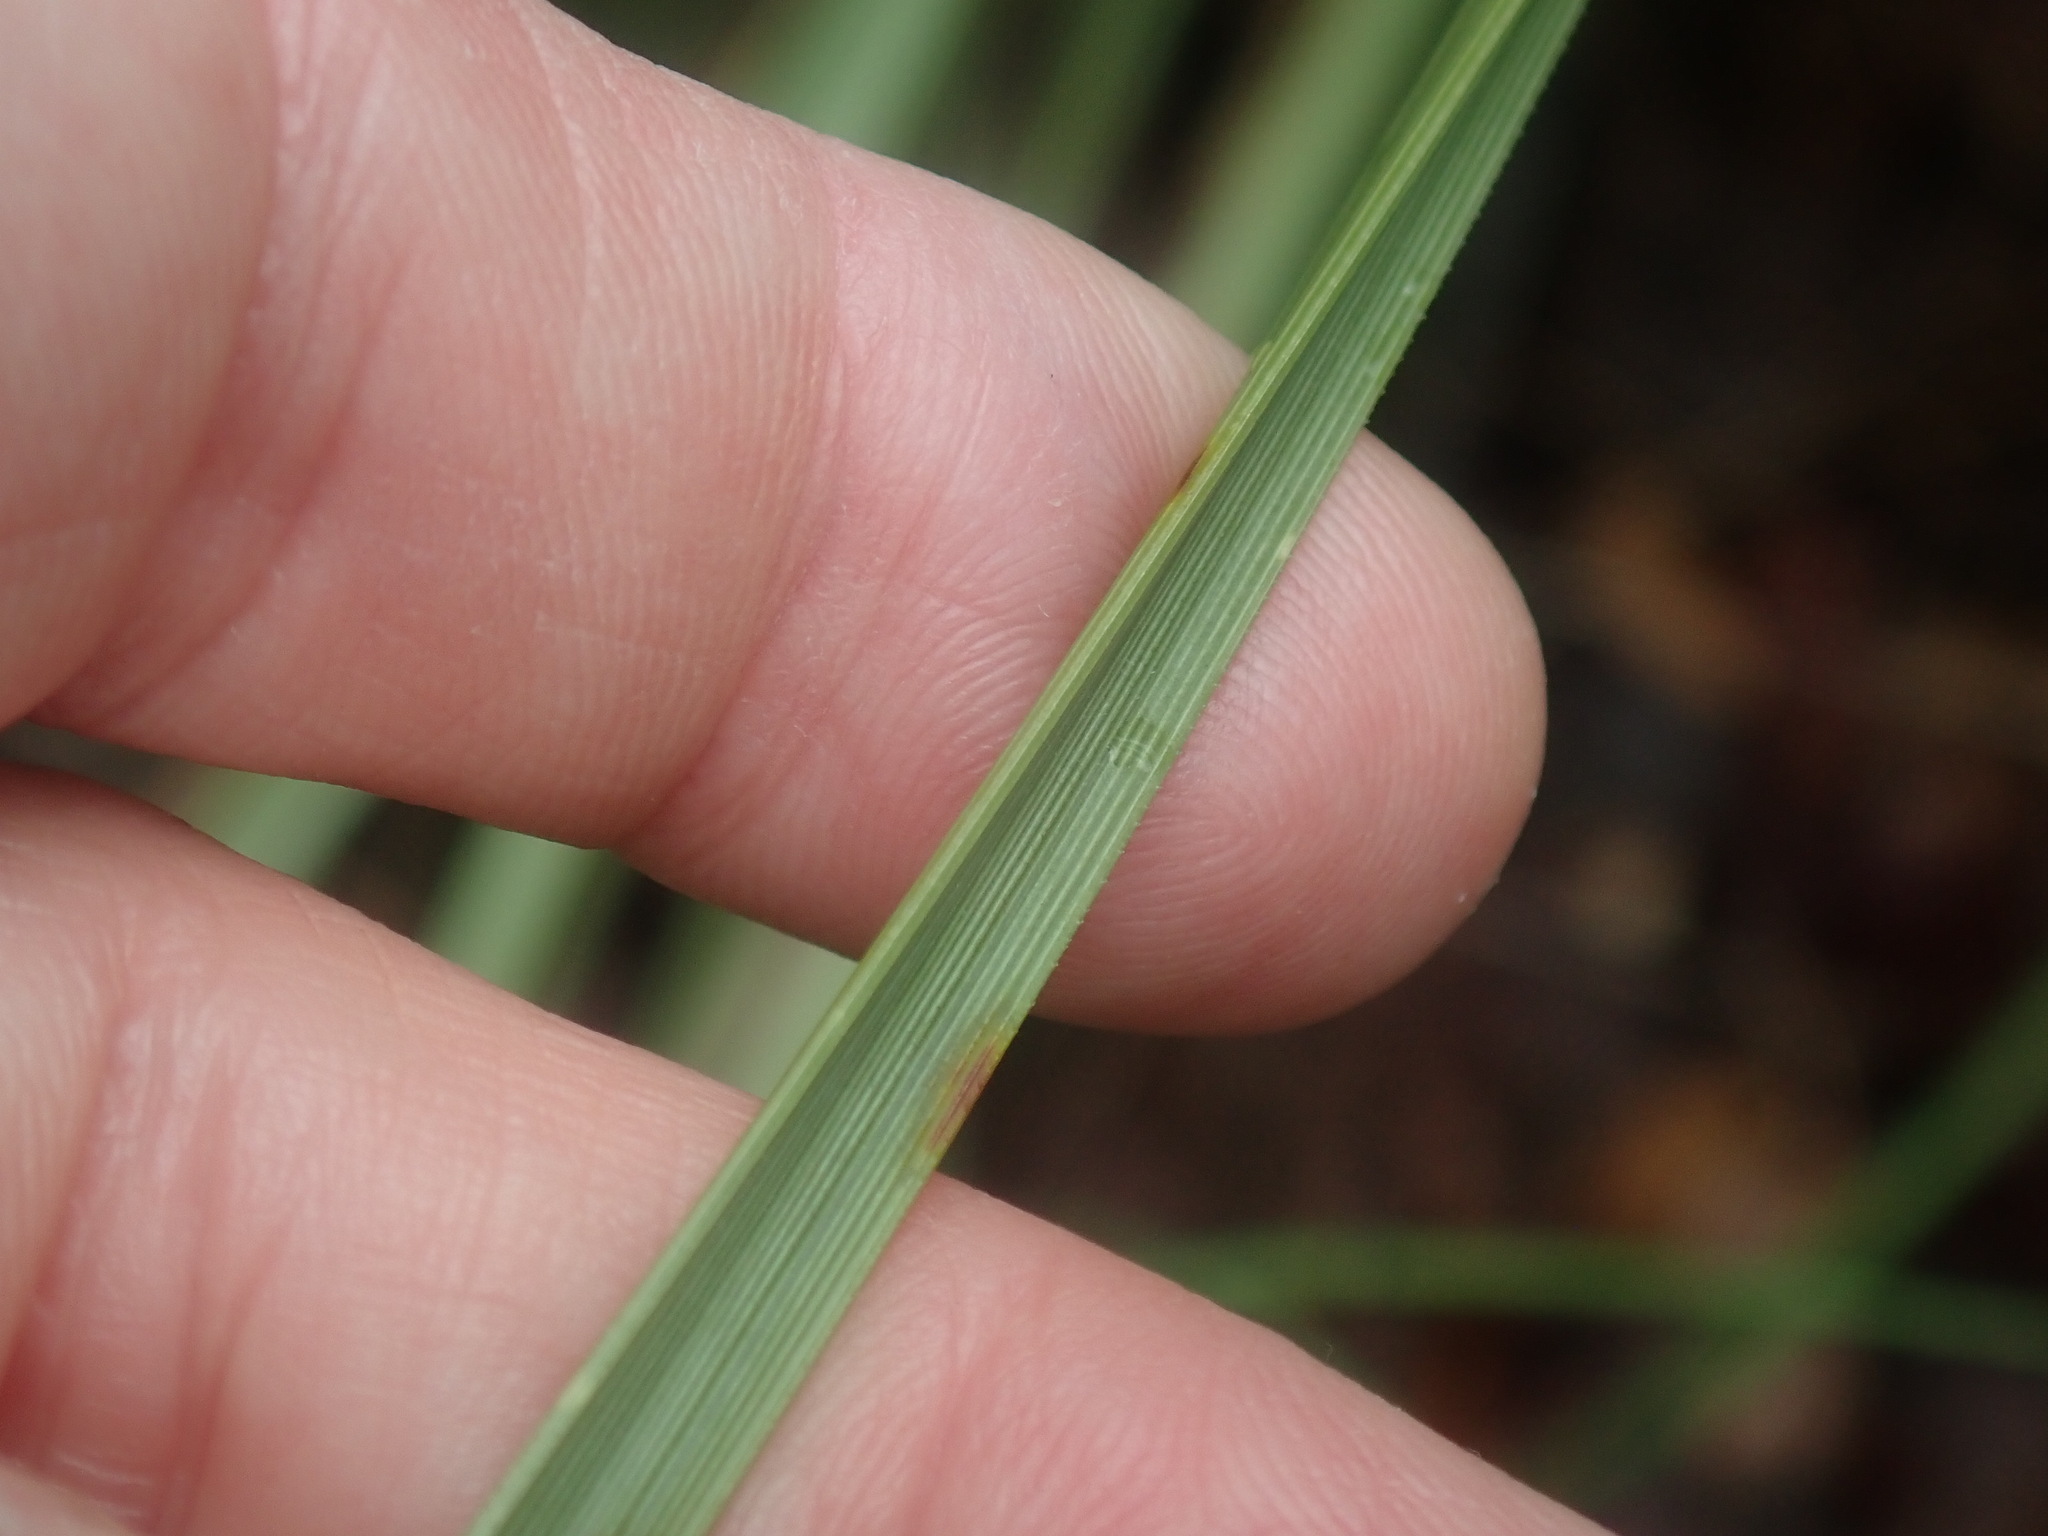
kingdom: Plantae
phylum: Tracheophyta
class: Liliopsida
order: Asparagales
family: Asparagaceae
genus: Nolina
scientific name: Nolina microcarpa
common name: Bear-grass
